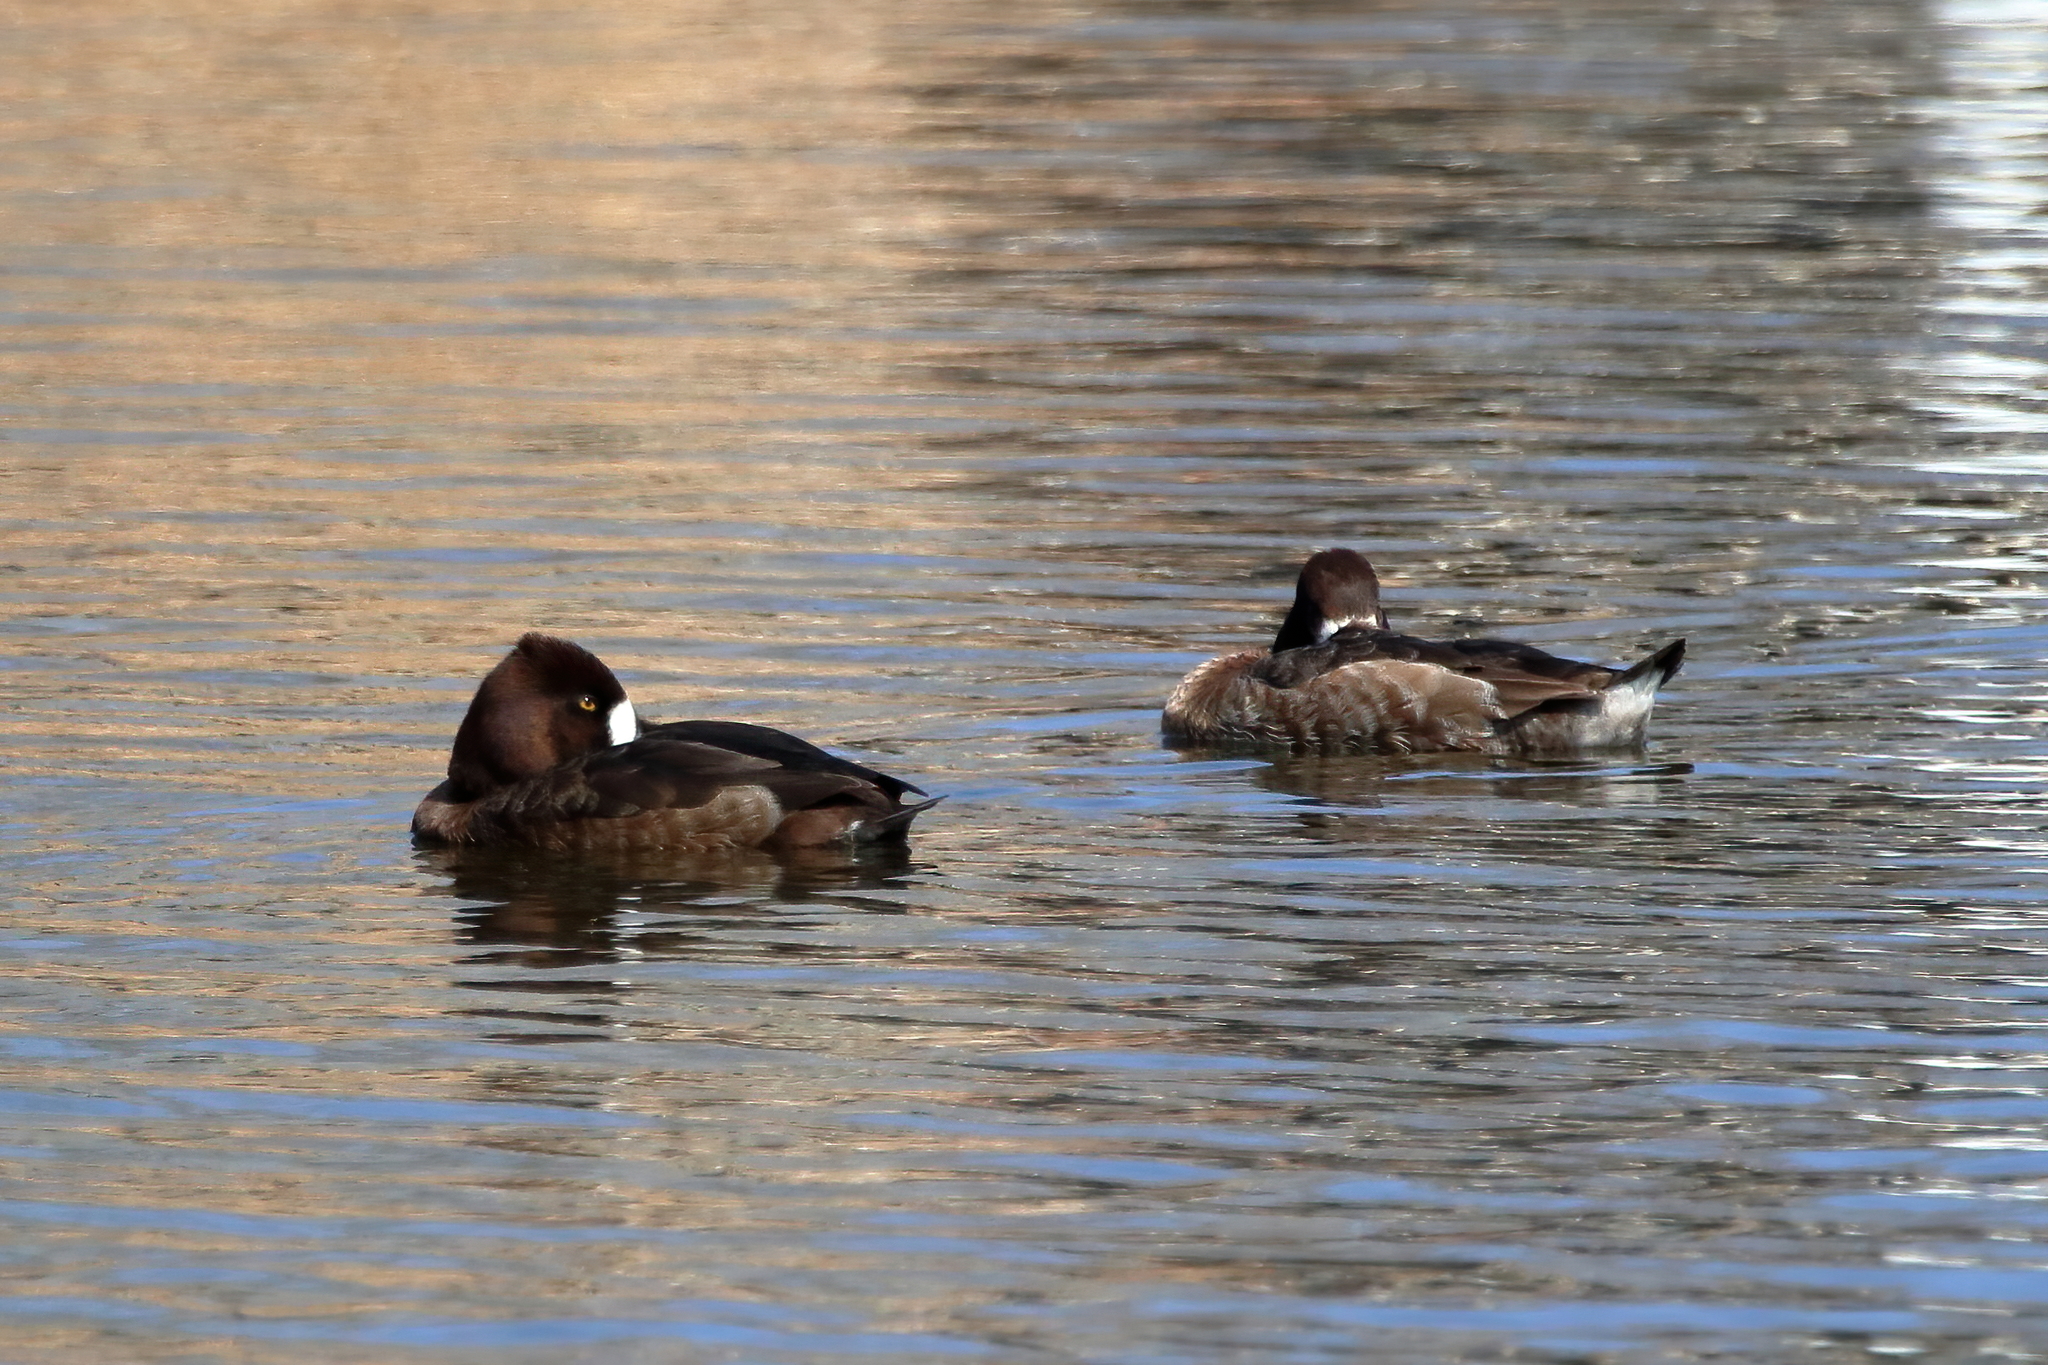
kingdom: Animalia
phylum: Chordata
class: Aves
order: Anseriformes
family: Anatidae
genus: Aythya
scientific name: Aythya affinis
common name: Lesser scaup
